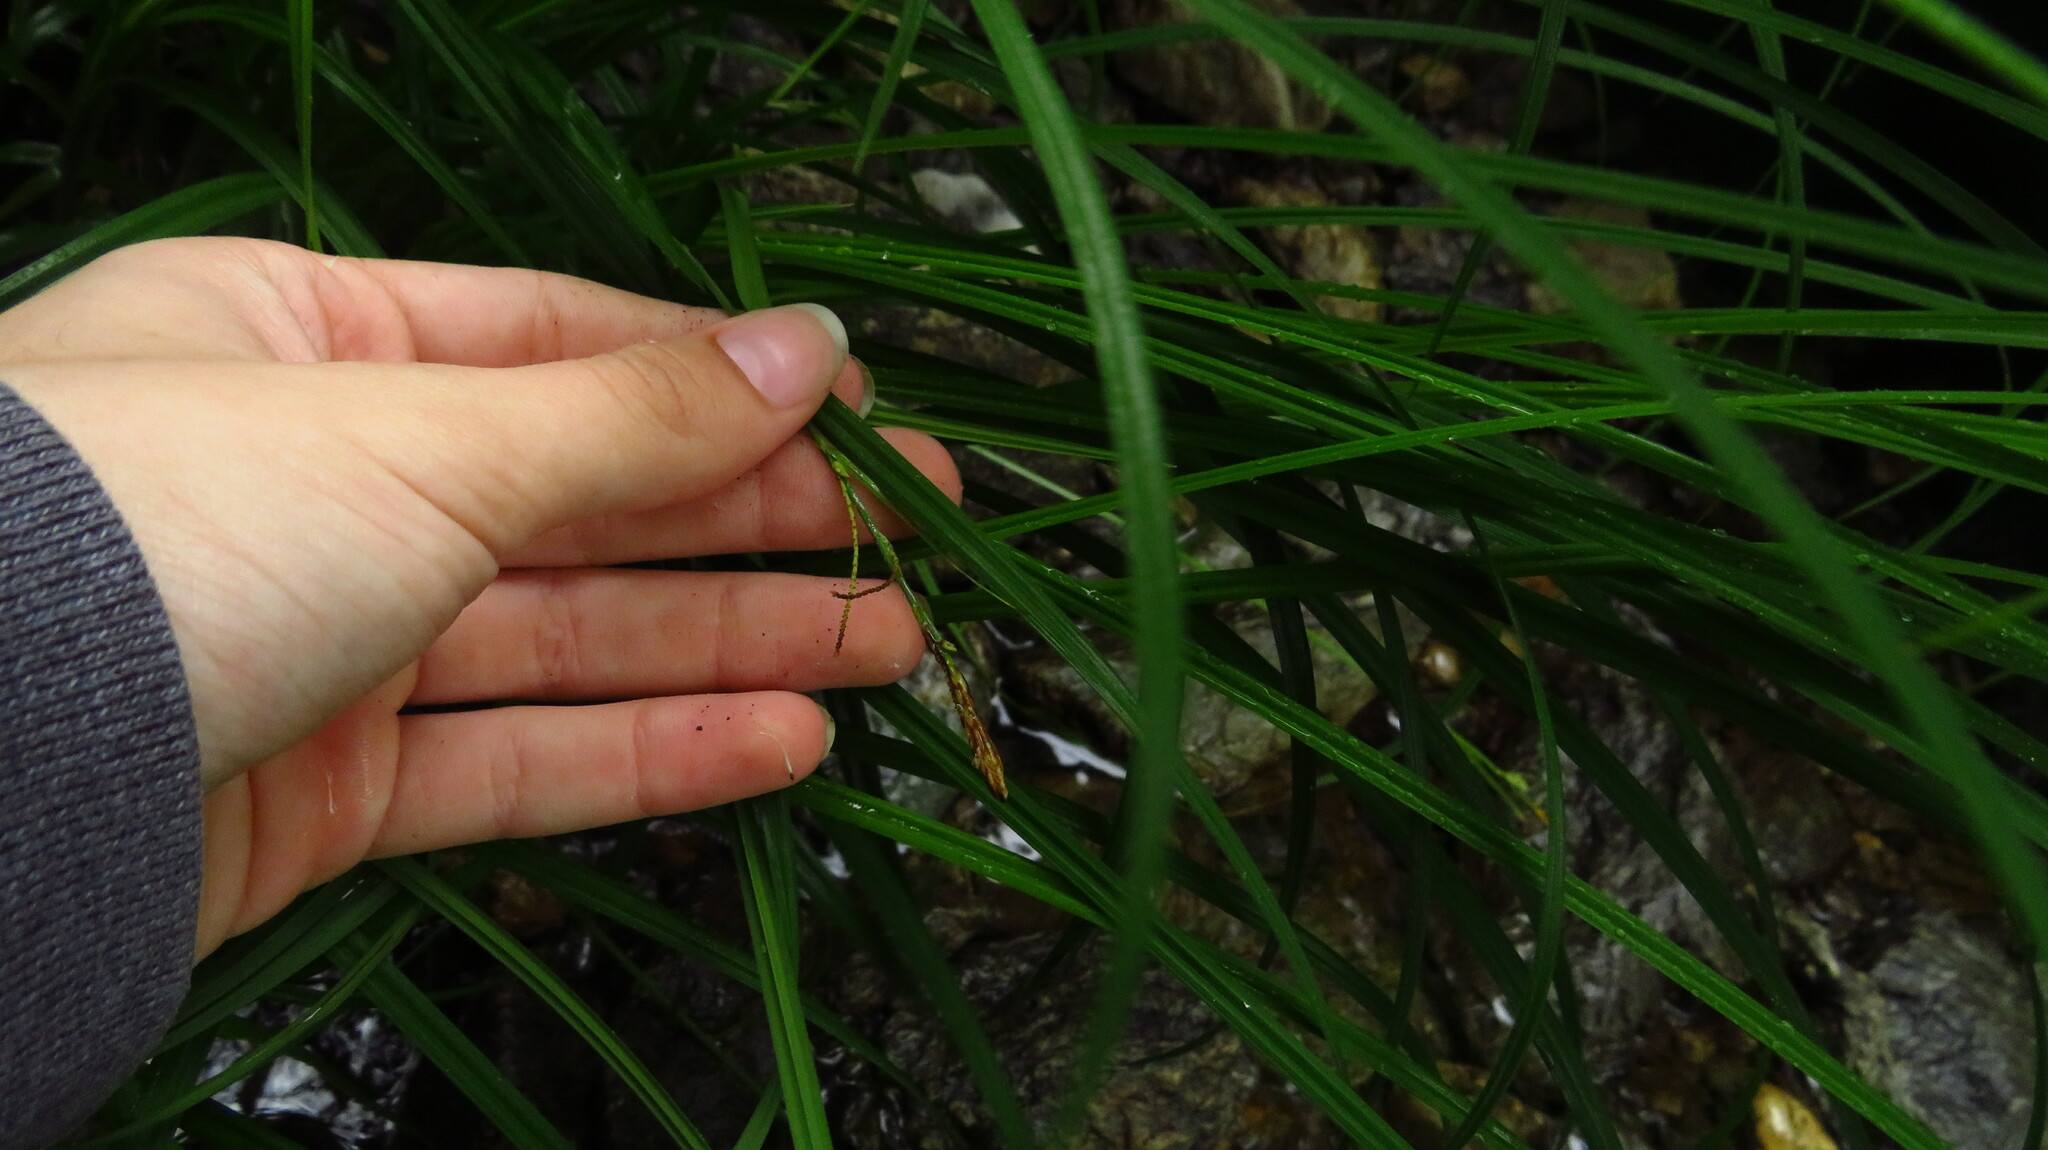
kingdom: Plantae
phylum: Tracheophyta
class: Liliopsida
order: Poales
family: Cyperaceae
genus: Carex
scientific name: Carex torta
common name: Twisted sedge
